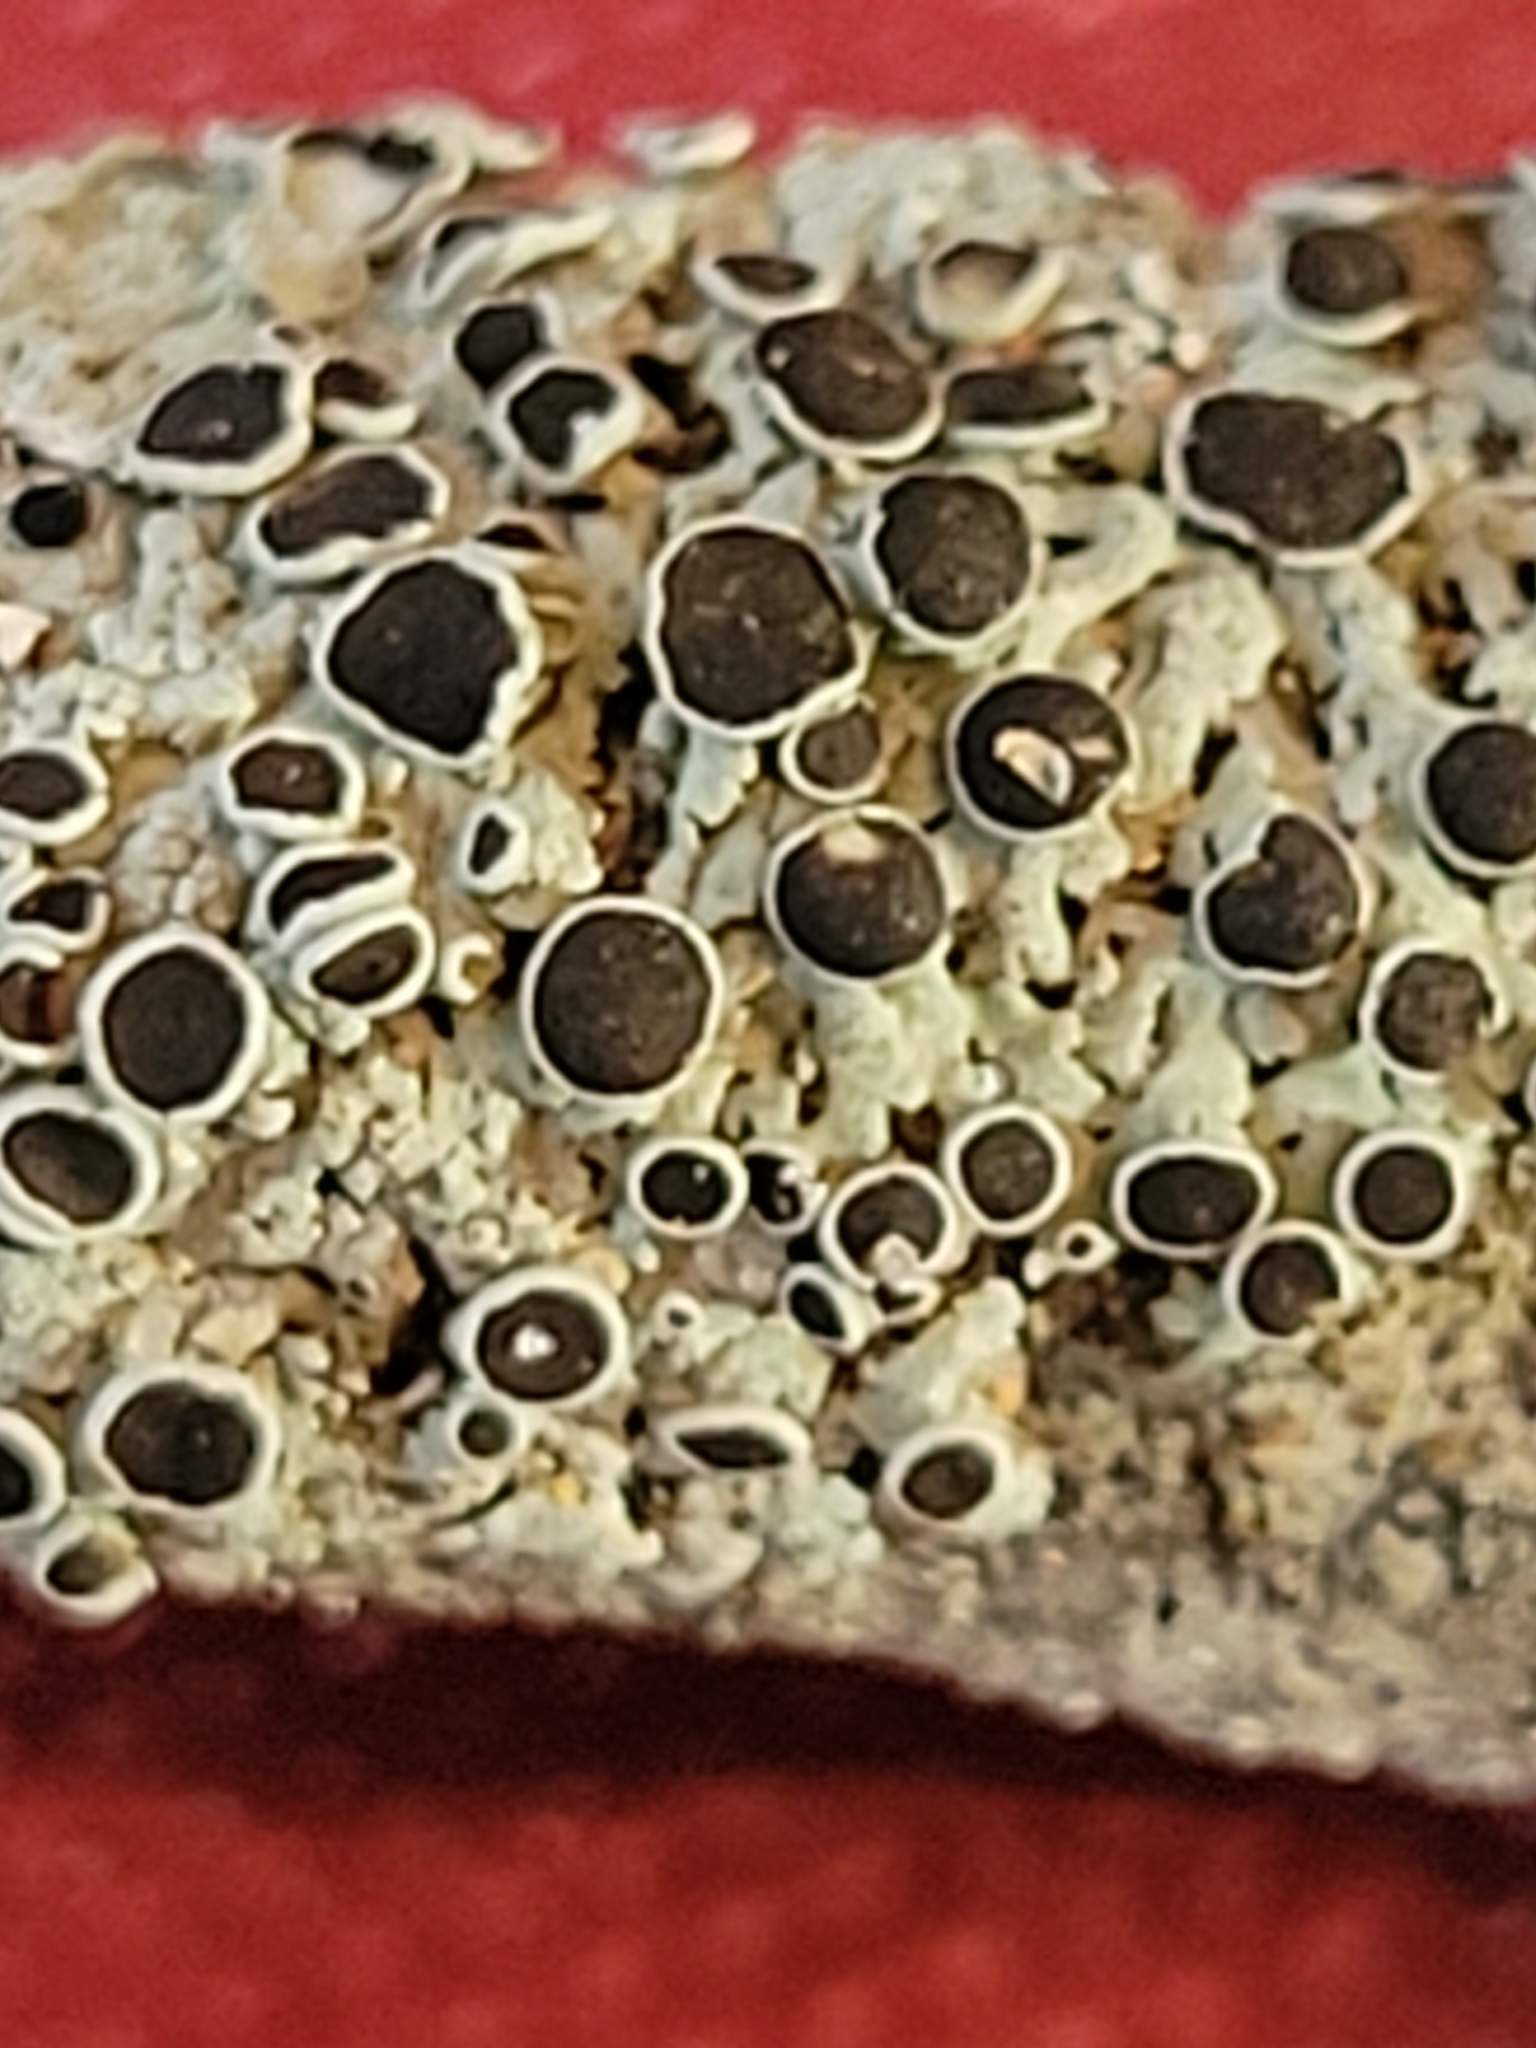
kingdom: Fungi
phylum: Ascomycota
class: Lecanoromycetes
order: Caliciales
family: Physciaceae
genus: Physcia
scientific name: Physcia pumilior
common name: Lesser gray legs
